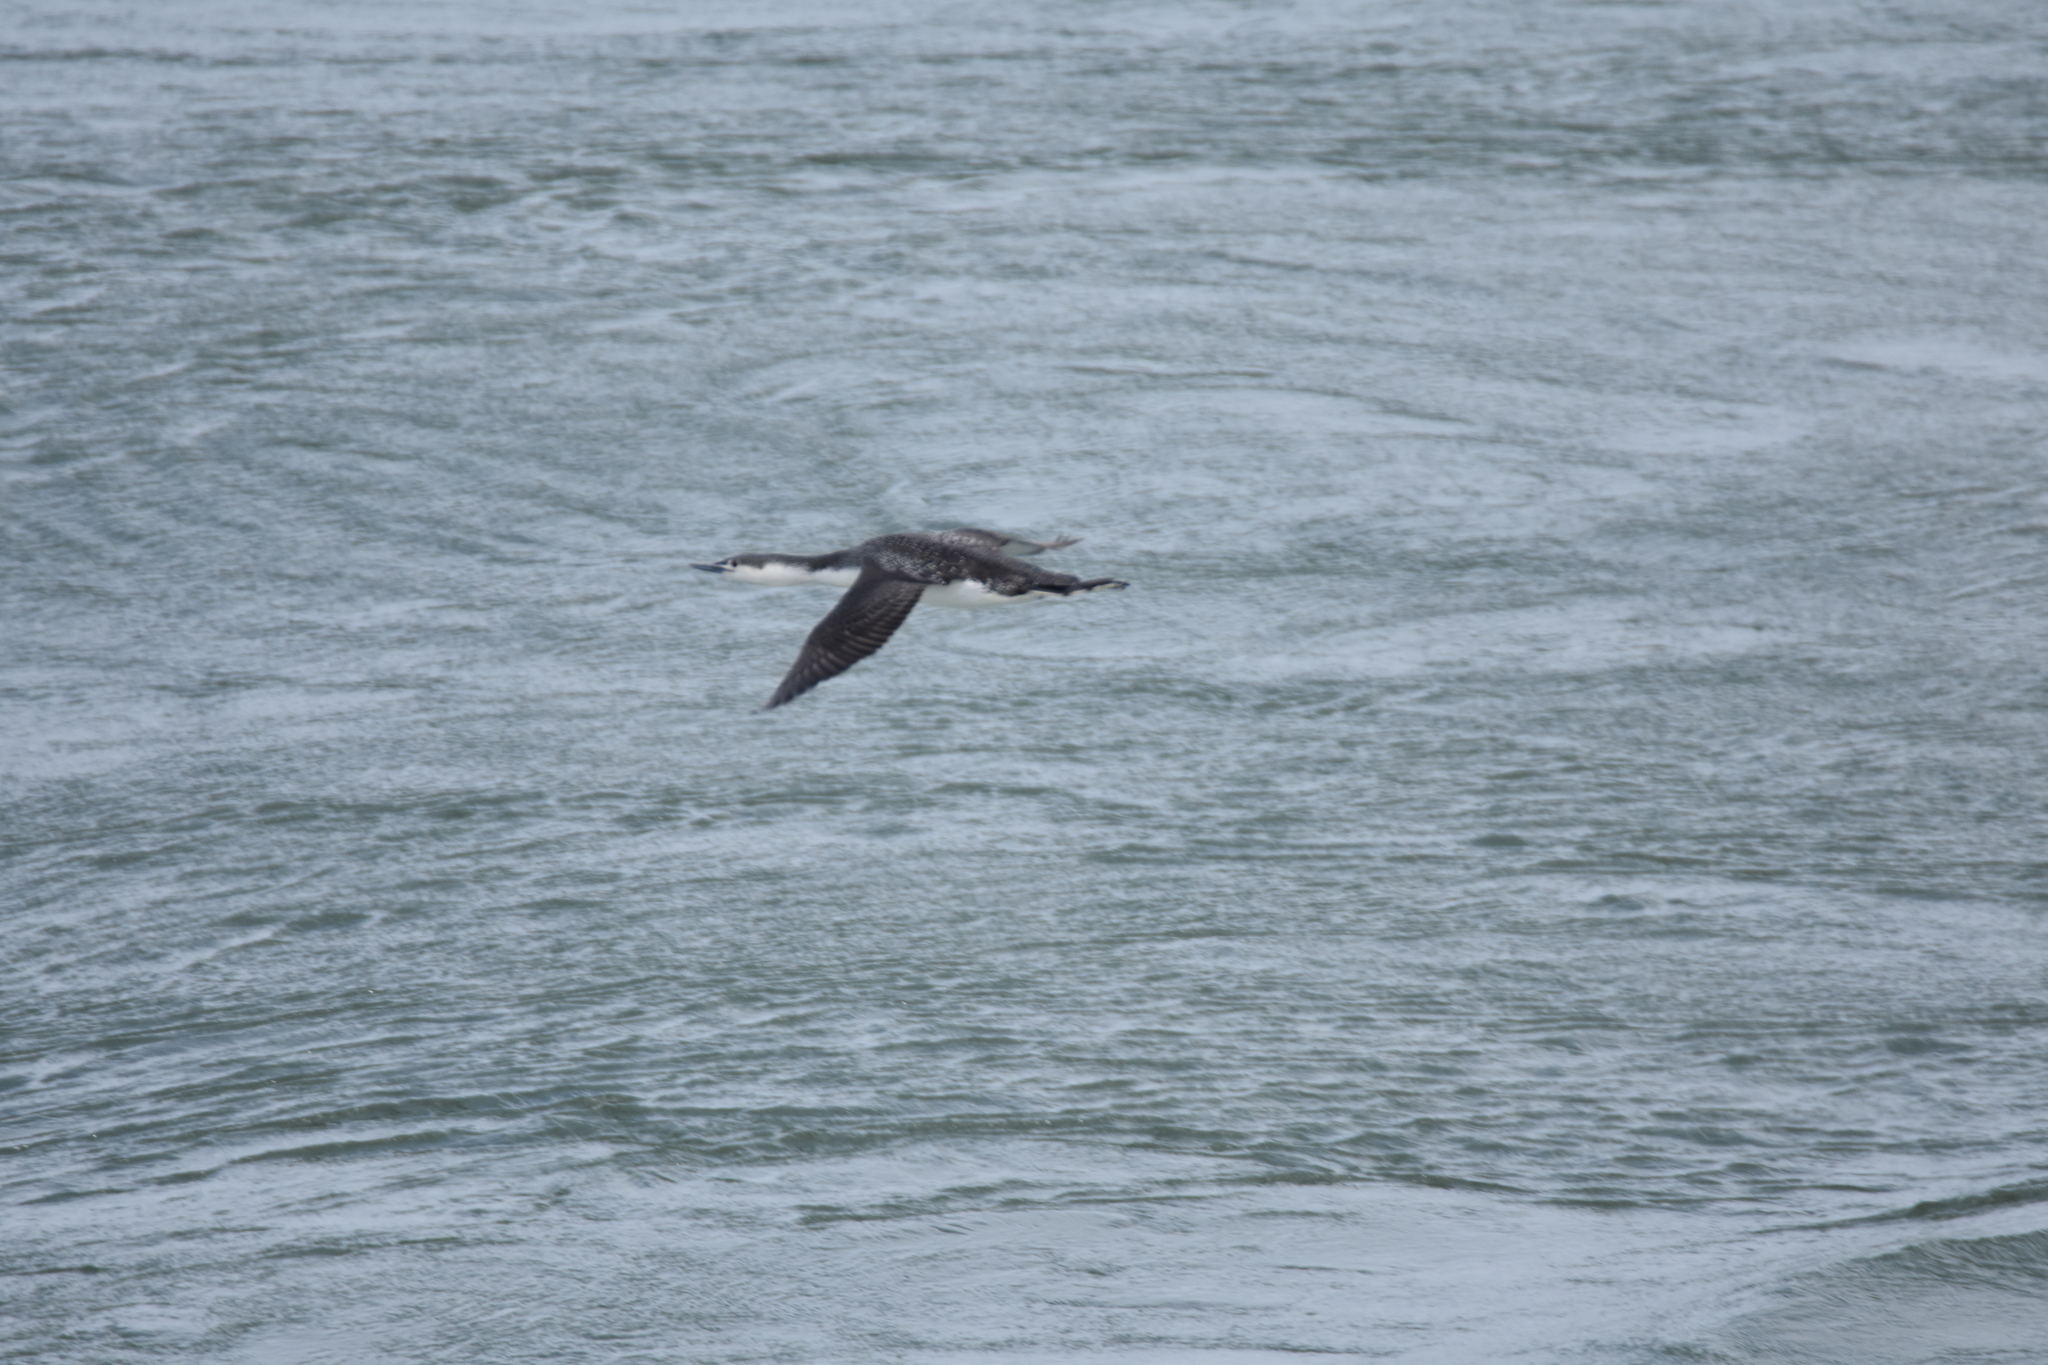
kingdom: Animalia
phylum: Chordata
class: Aves
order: Gaviiformes
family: Gaviidae
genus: Gavia
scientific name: Gavia stellata
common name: Red-throated loon
